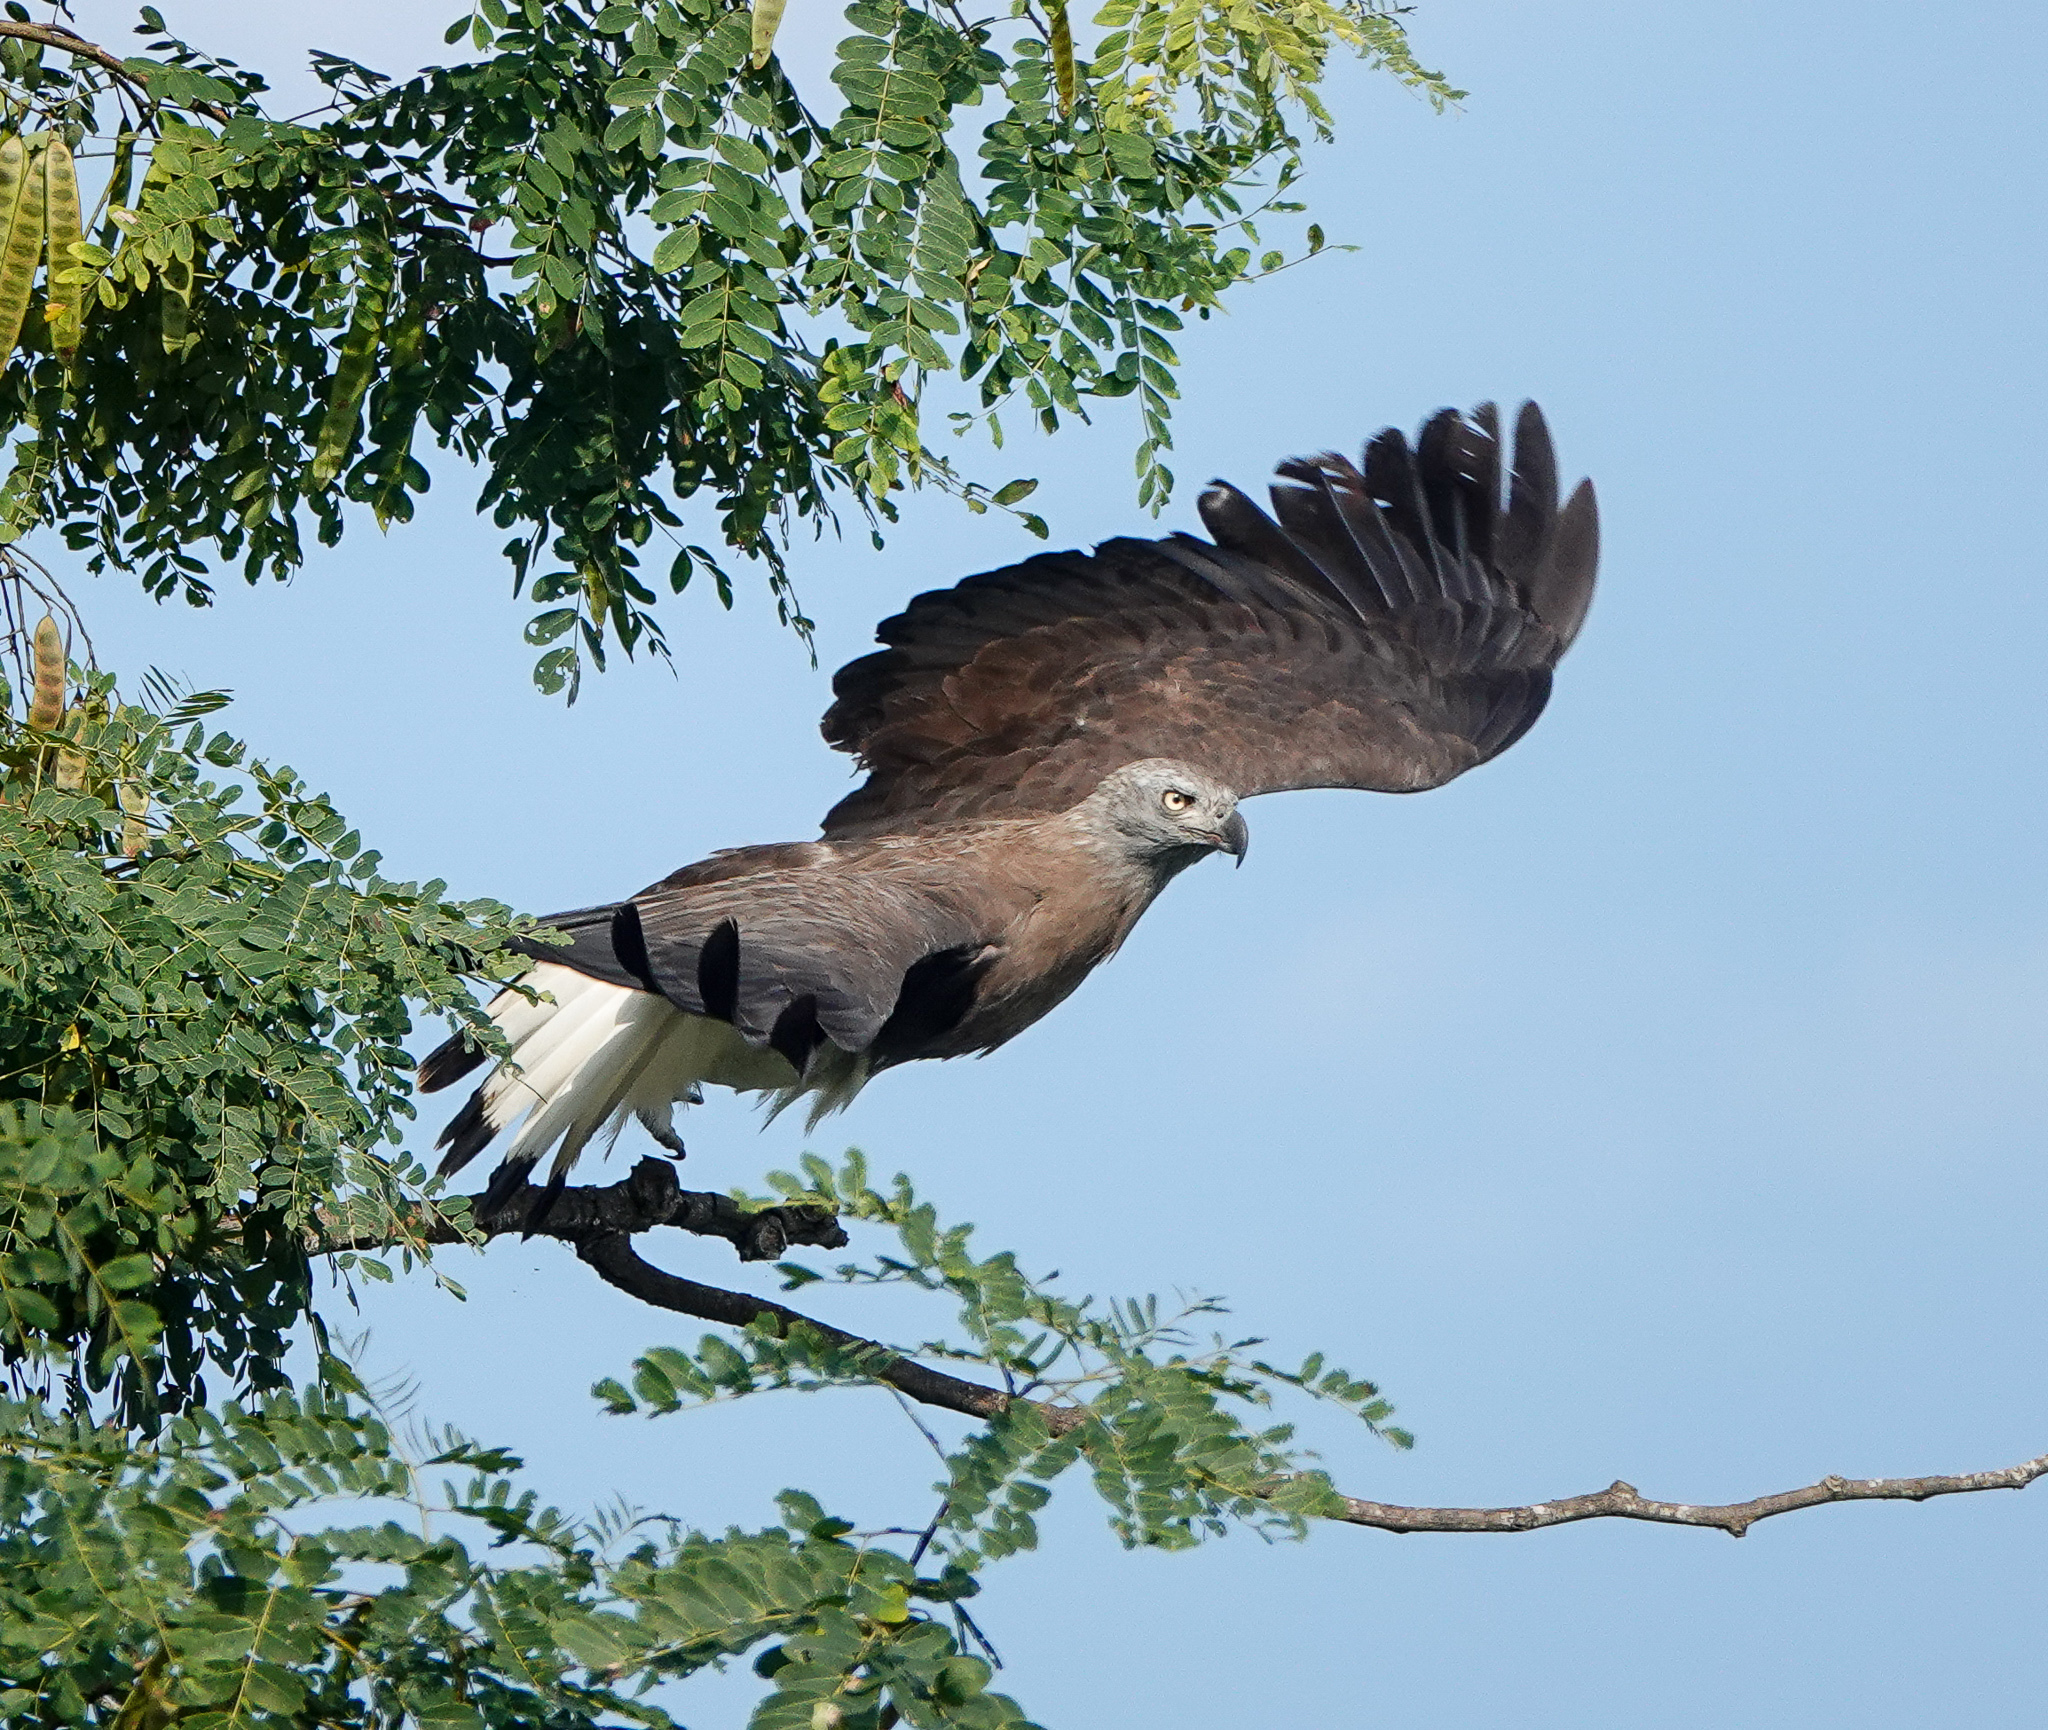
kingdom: Animalia
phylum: Chordata
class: Aves
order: Accipitriformes
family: Accipitridae
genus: Icthyophaga
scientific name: Icthyophaga ichthyaetus
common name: Grey-headed fish eagle
